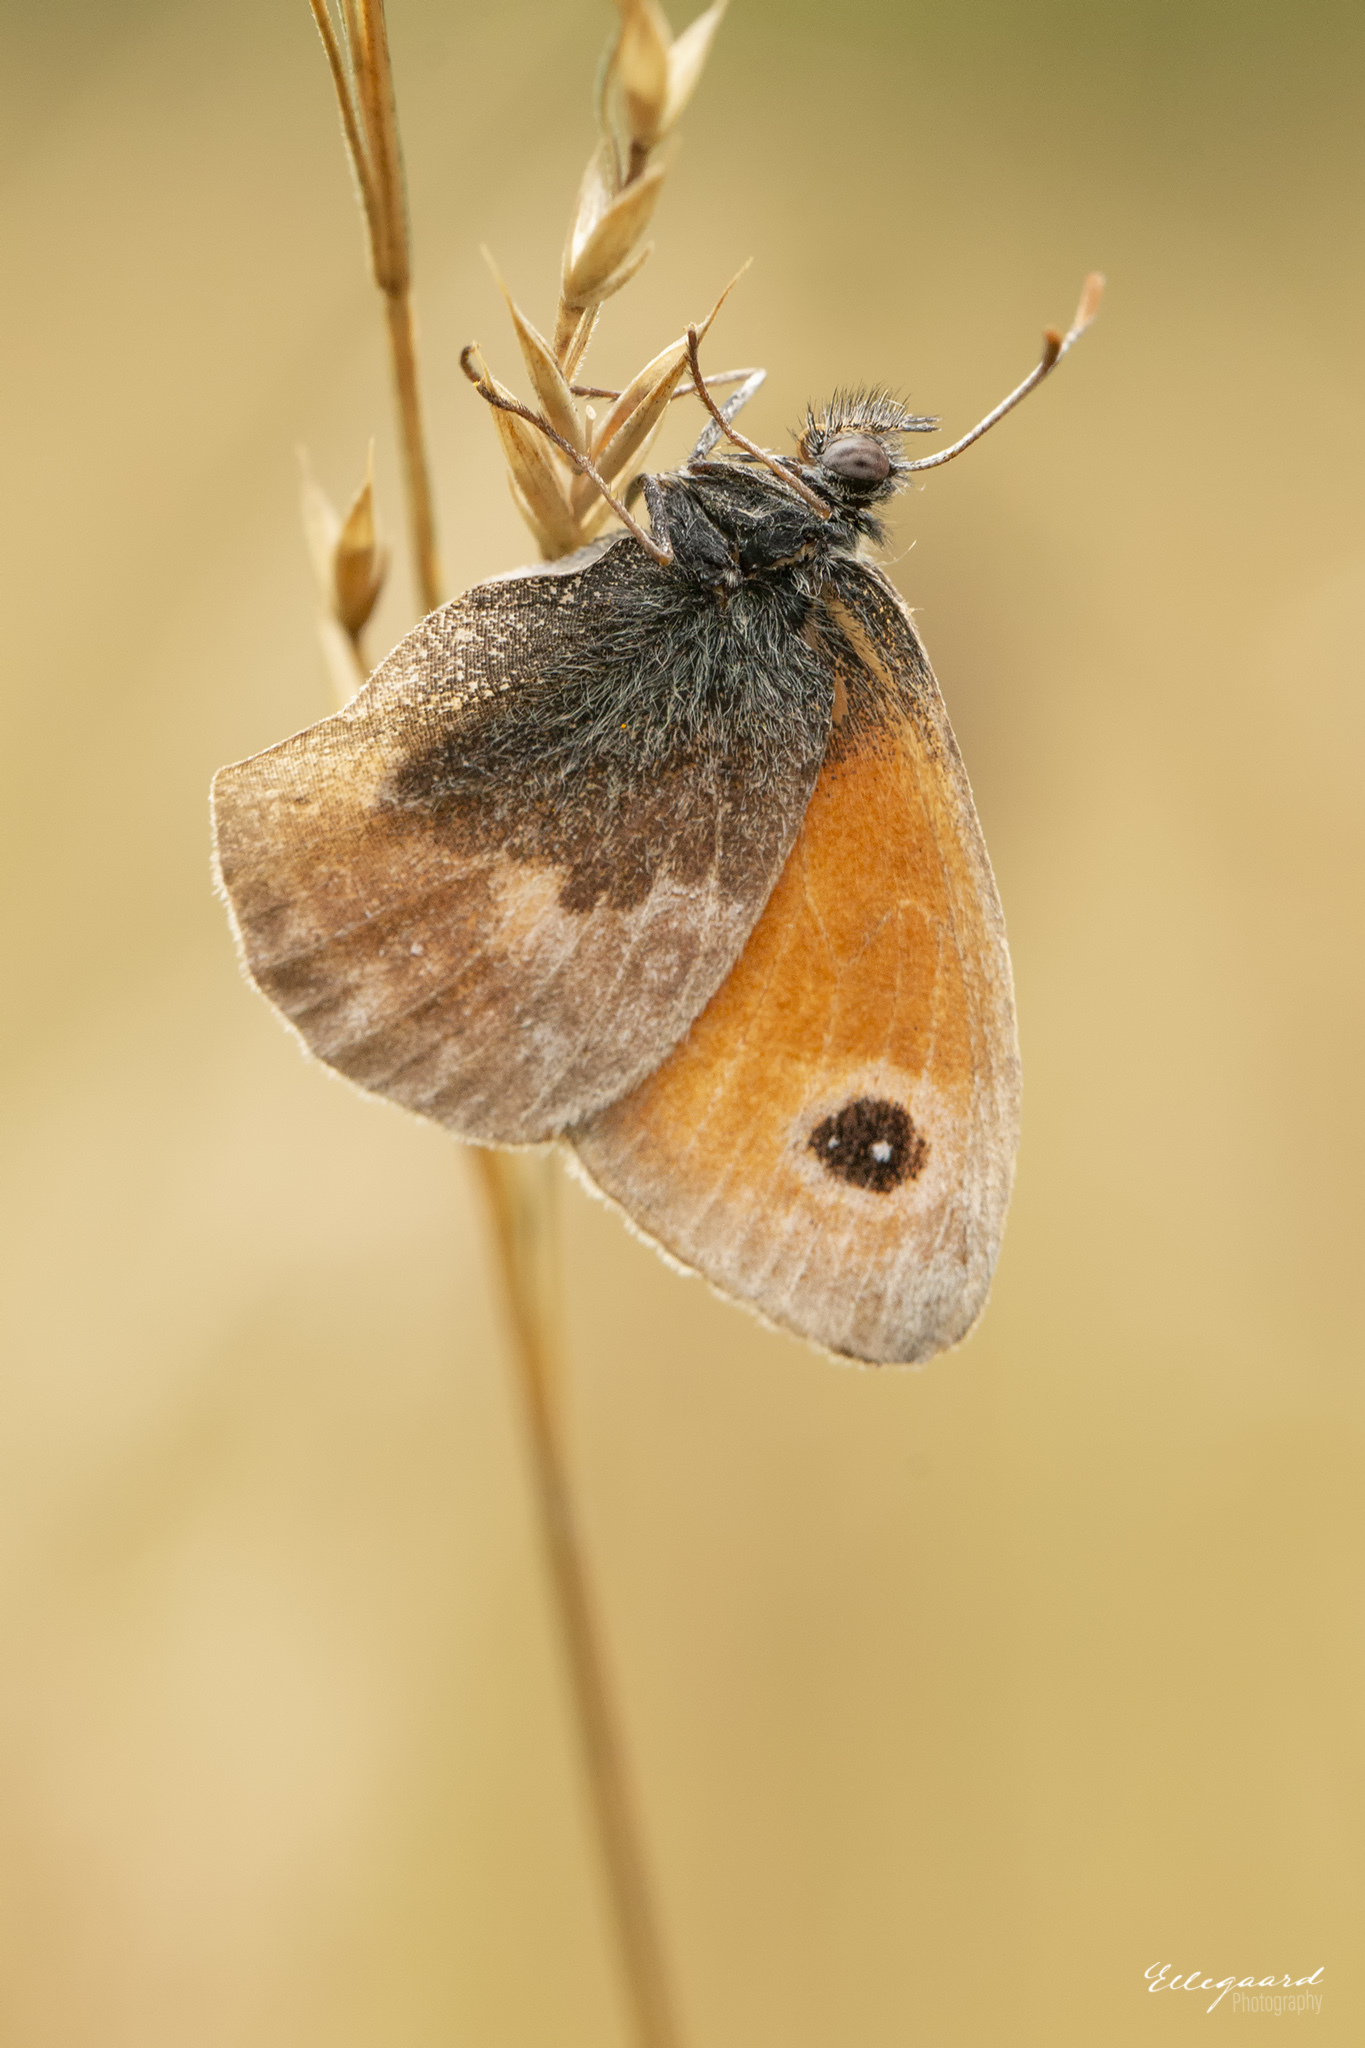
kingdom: Animalia
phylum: Arthropoda
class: Insecta
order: Lepidoptera
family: Nymphalidae
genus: Coenonympha
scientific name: Coenonympha pamphilus
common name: Small heath
